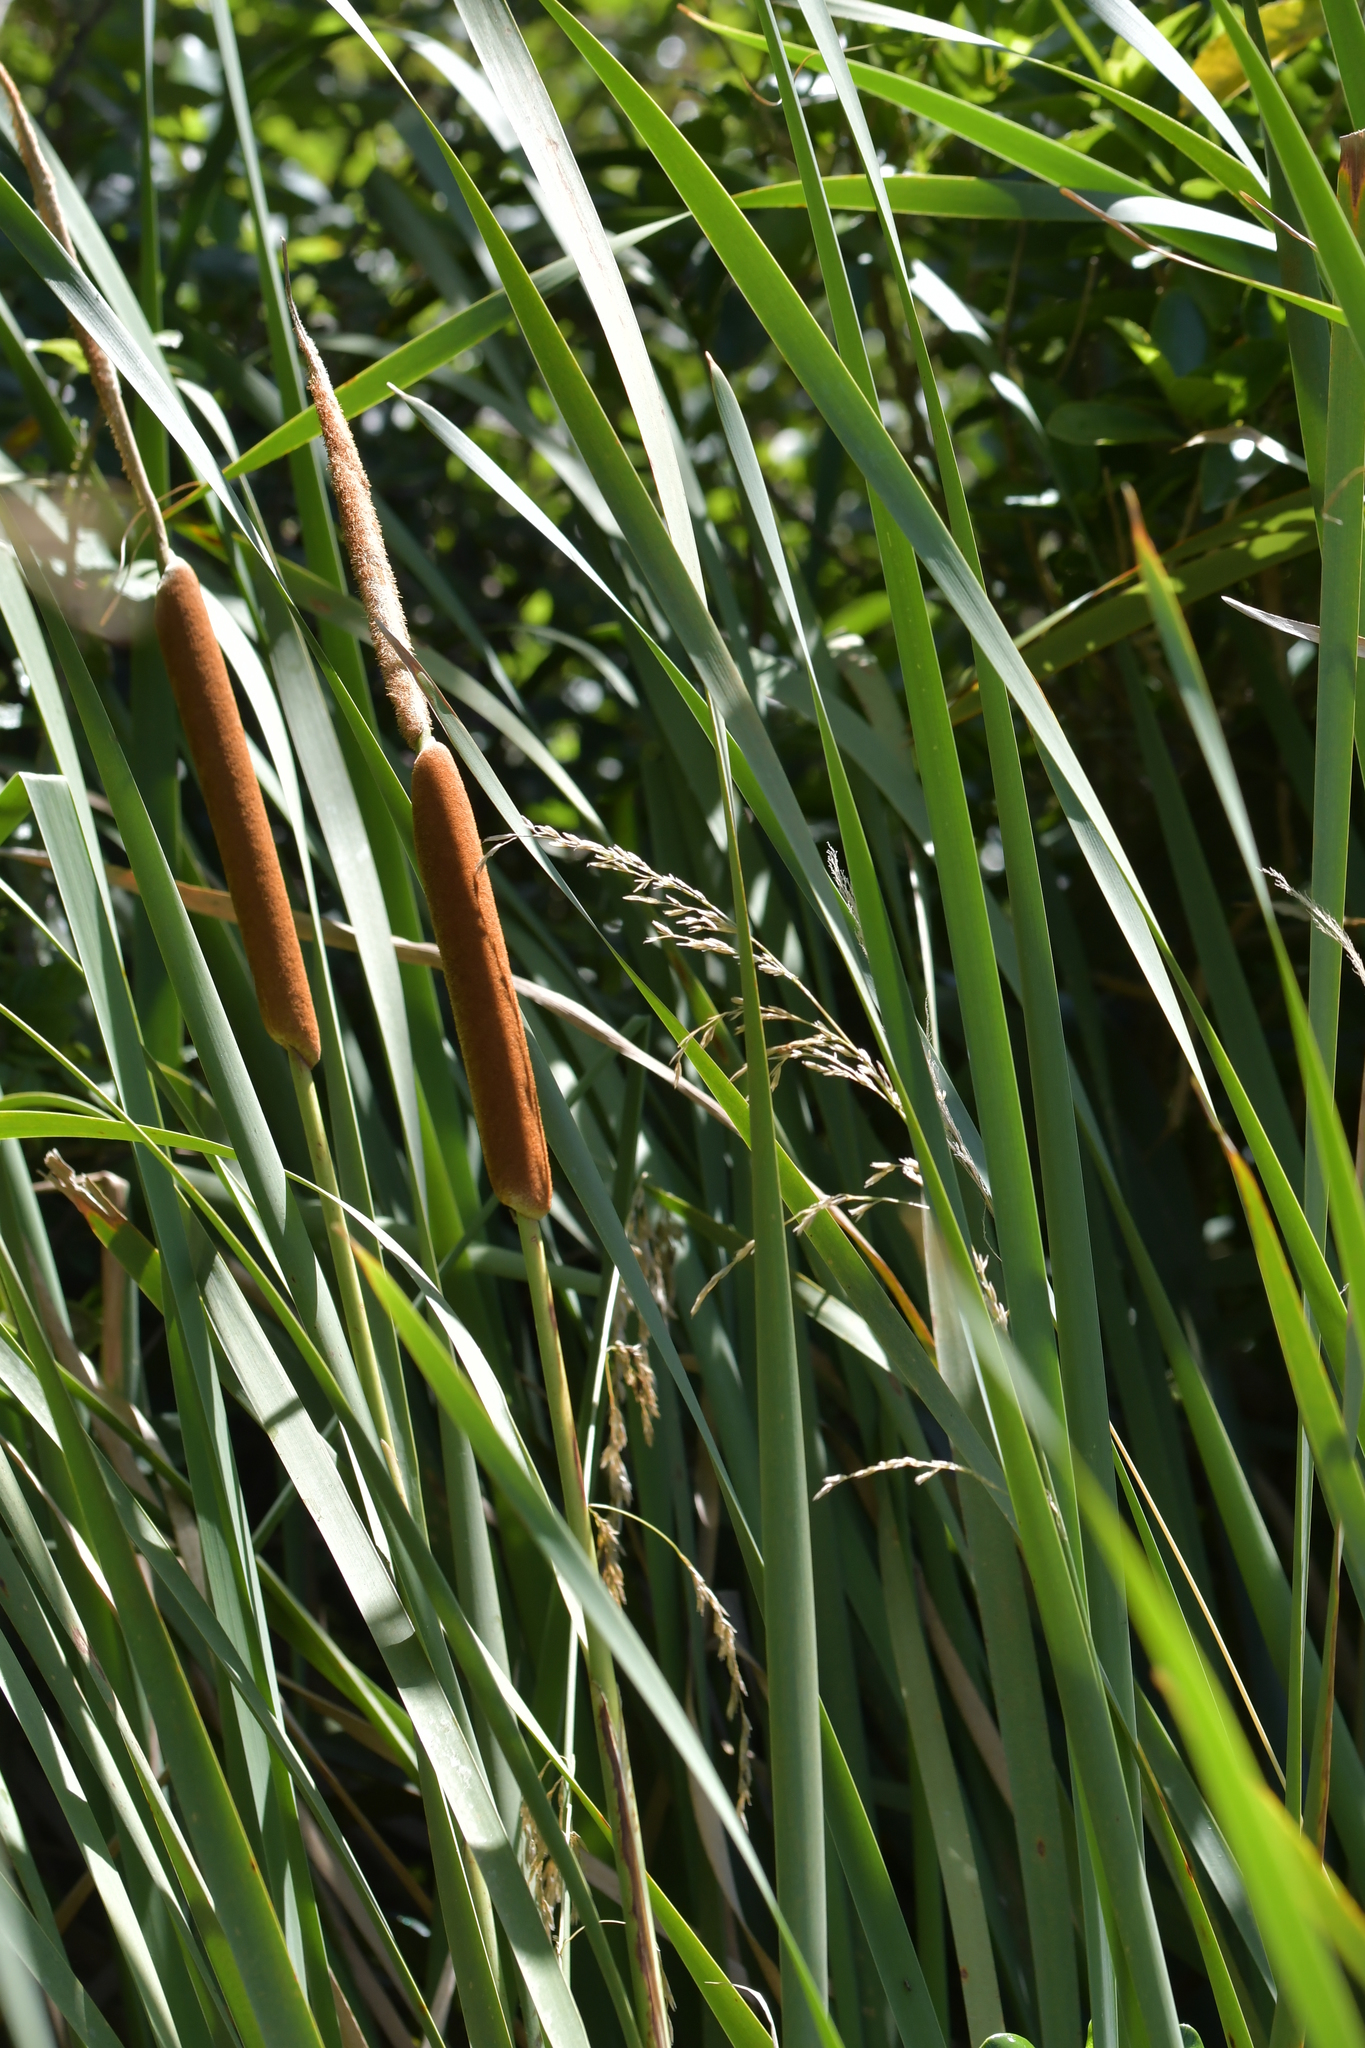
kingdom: Plantae
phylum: Tracheophyta
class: Liliopsida
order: Poales
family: Typhaceae
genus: Typha
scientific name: Typha orientalis
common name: Bullrush
